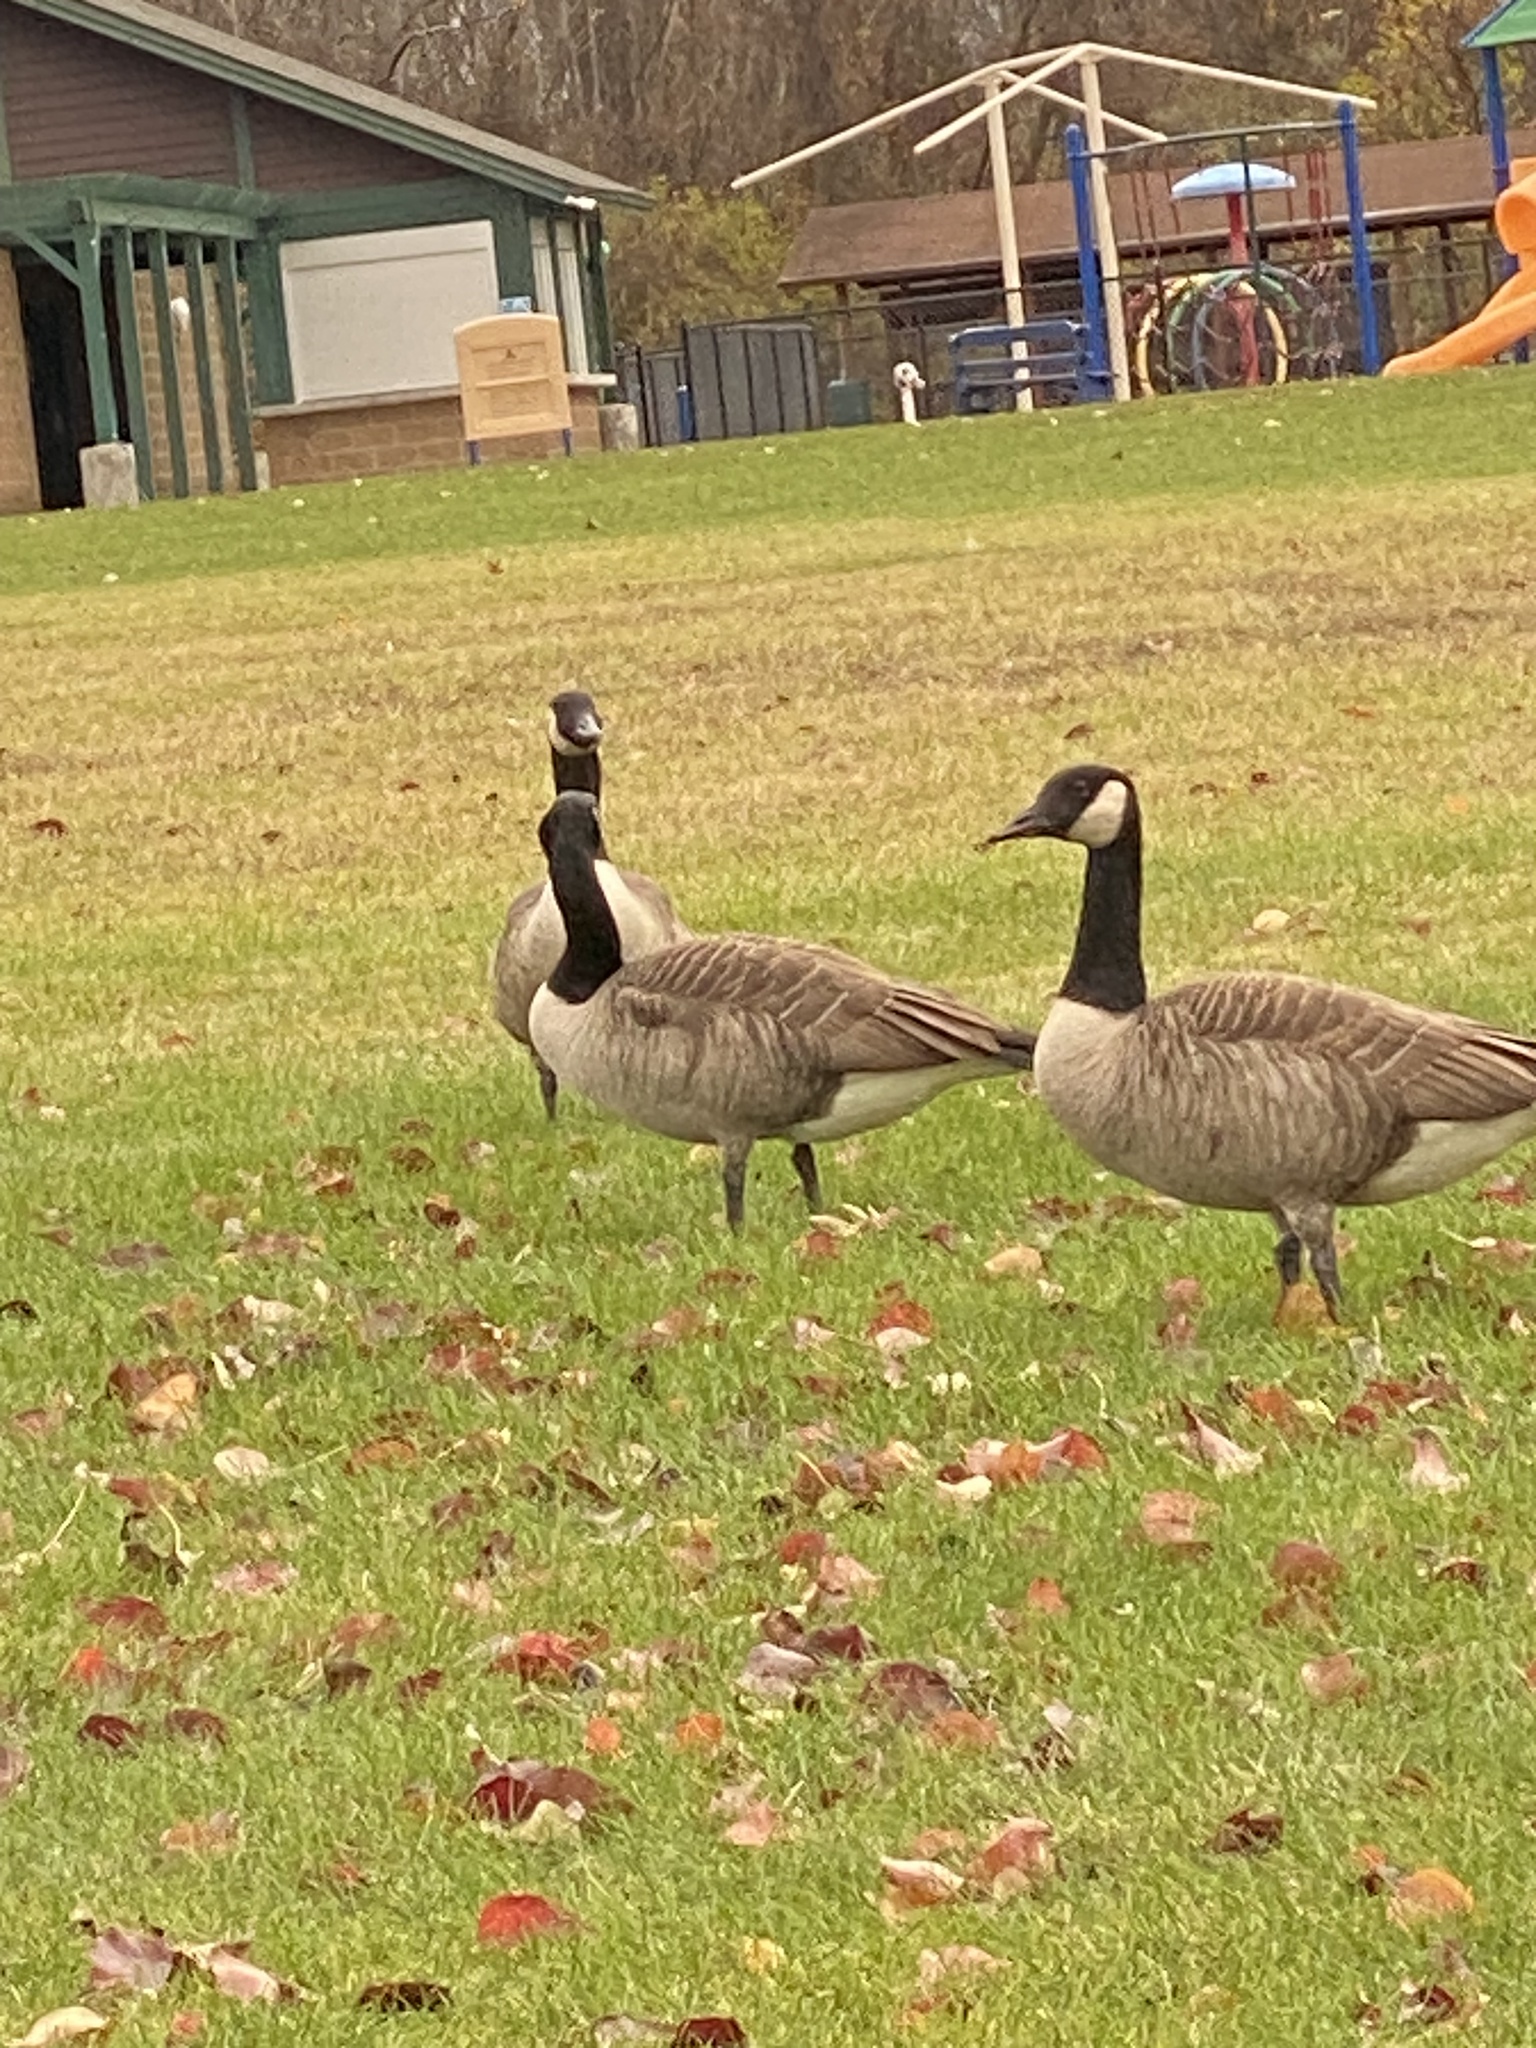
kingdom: Animalia
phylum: Chordata
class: Aves
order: Anseriformes
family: Anatidae
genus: Branta
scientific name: Branta canadensis
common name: Canada goose
